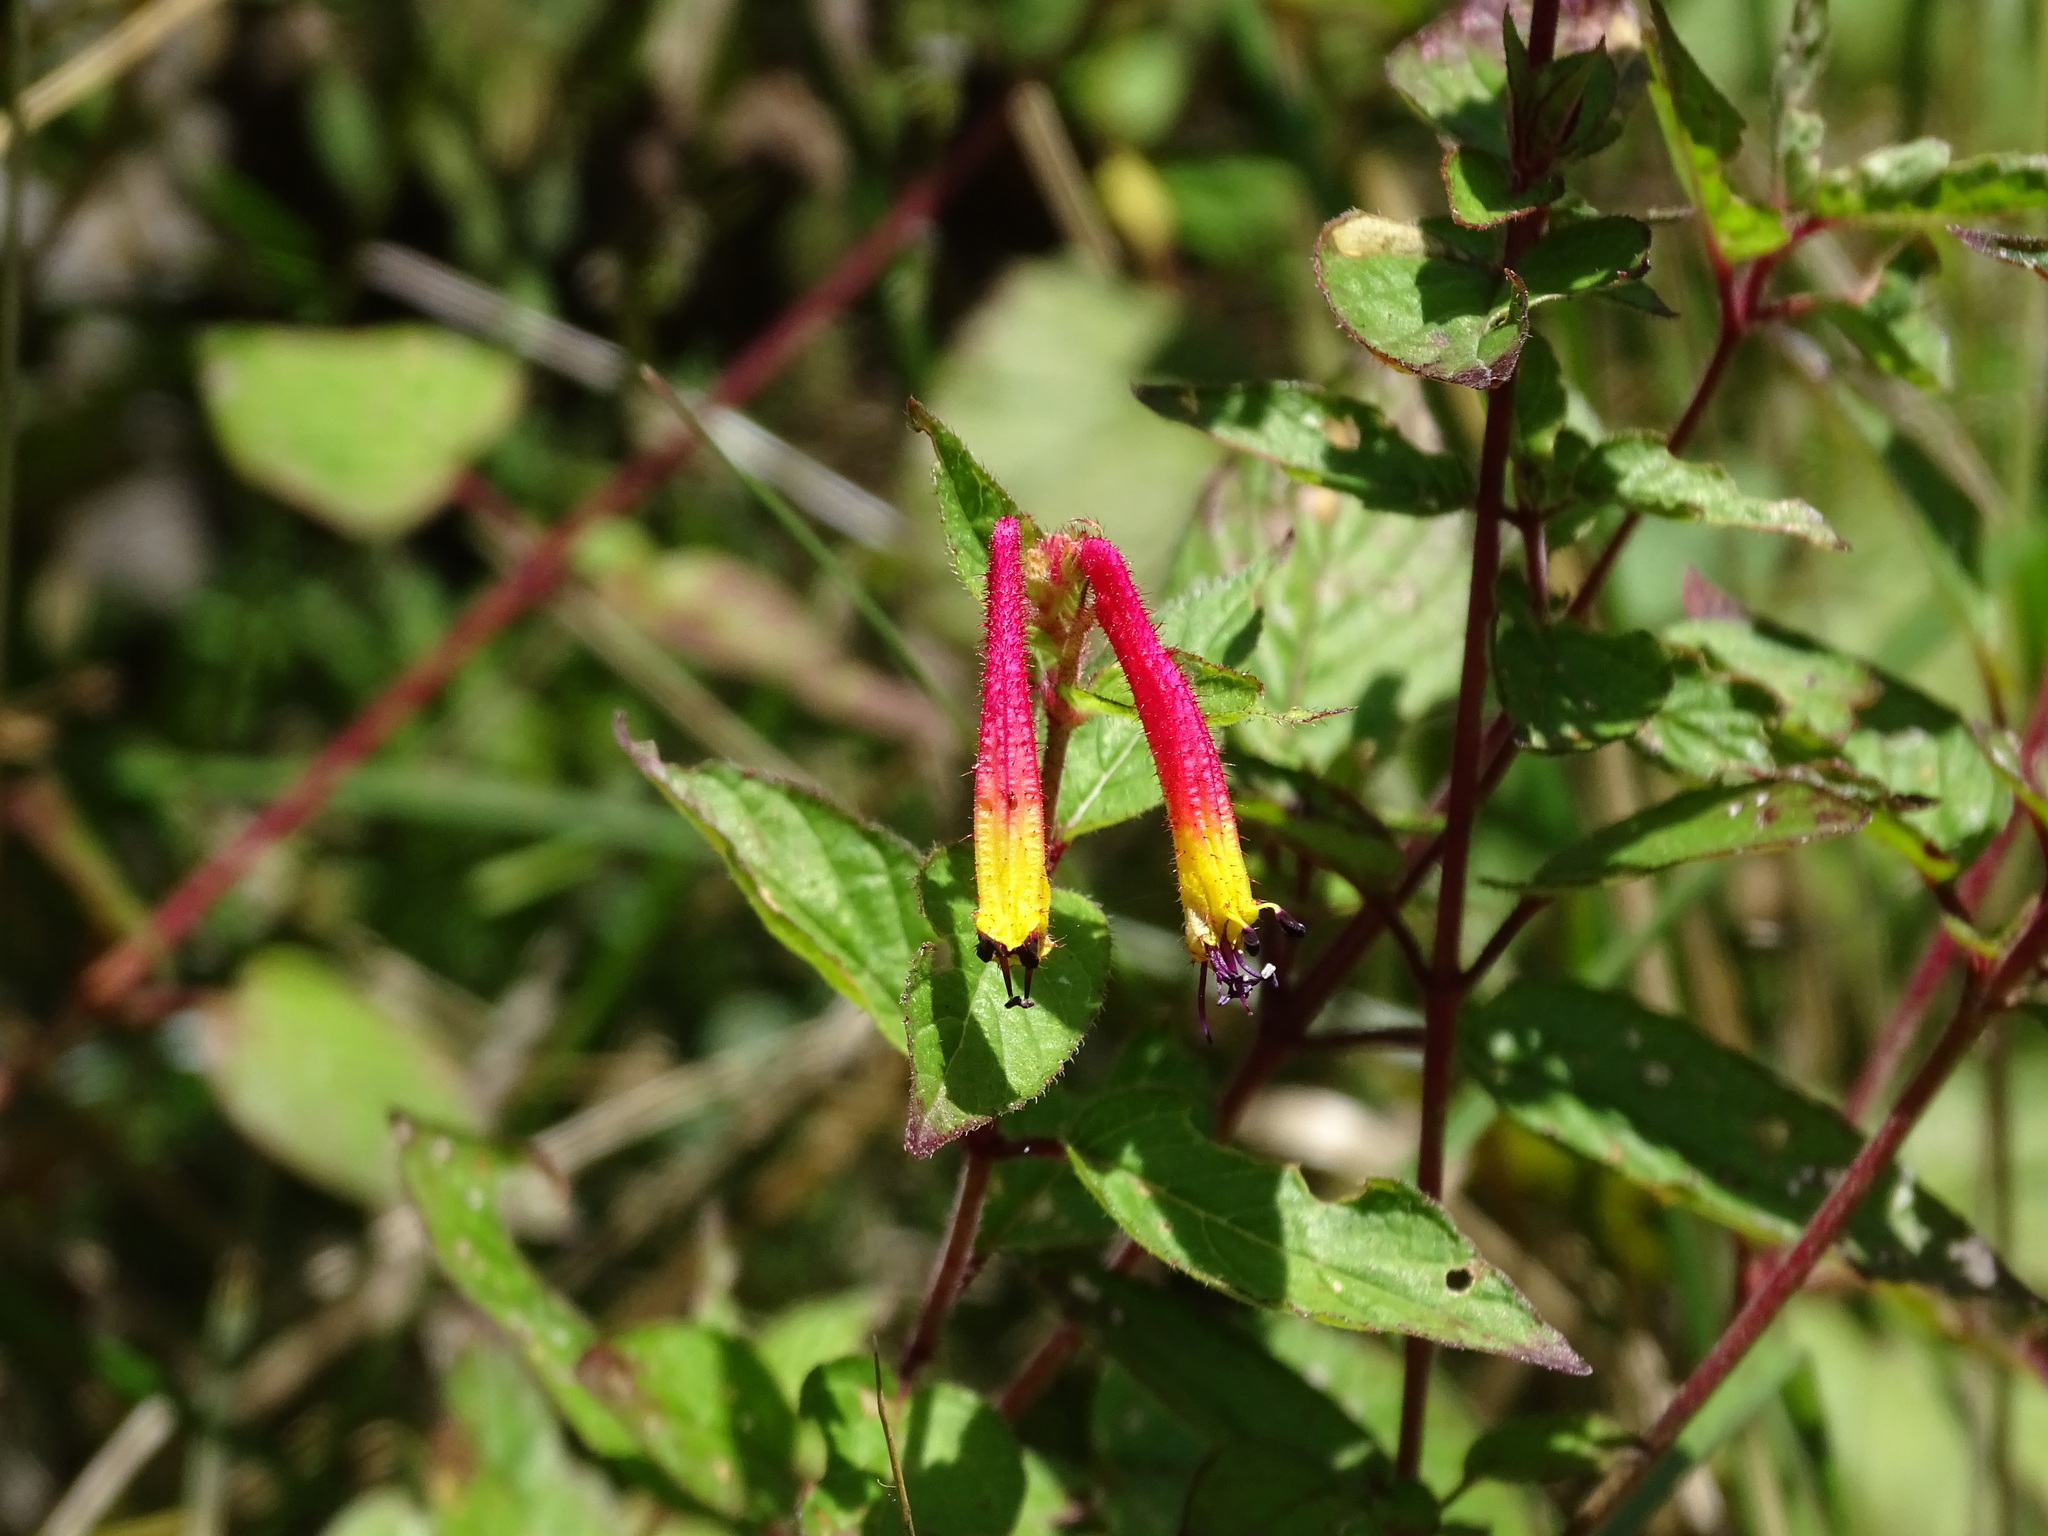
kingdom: Plantae
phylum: Tracheophyta
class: Magnoliopsida
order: Myrtales
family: Lythraceae
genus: Cuphea
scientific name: Cuphea cyanea
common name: Black-eyed cuphea
